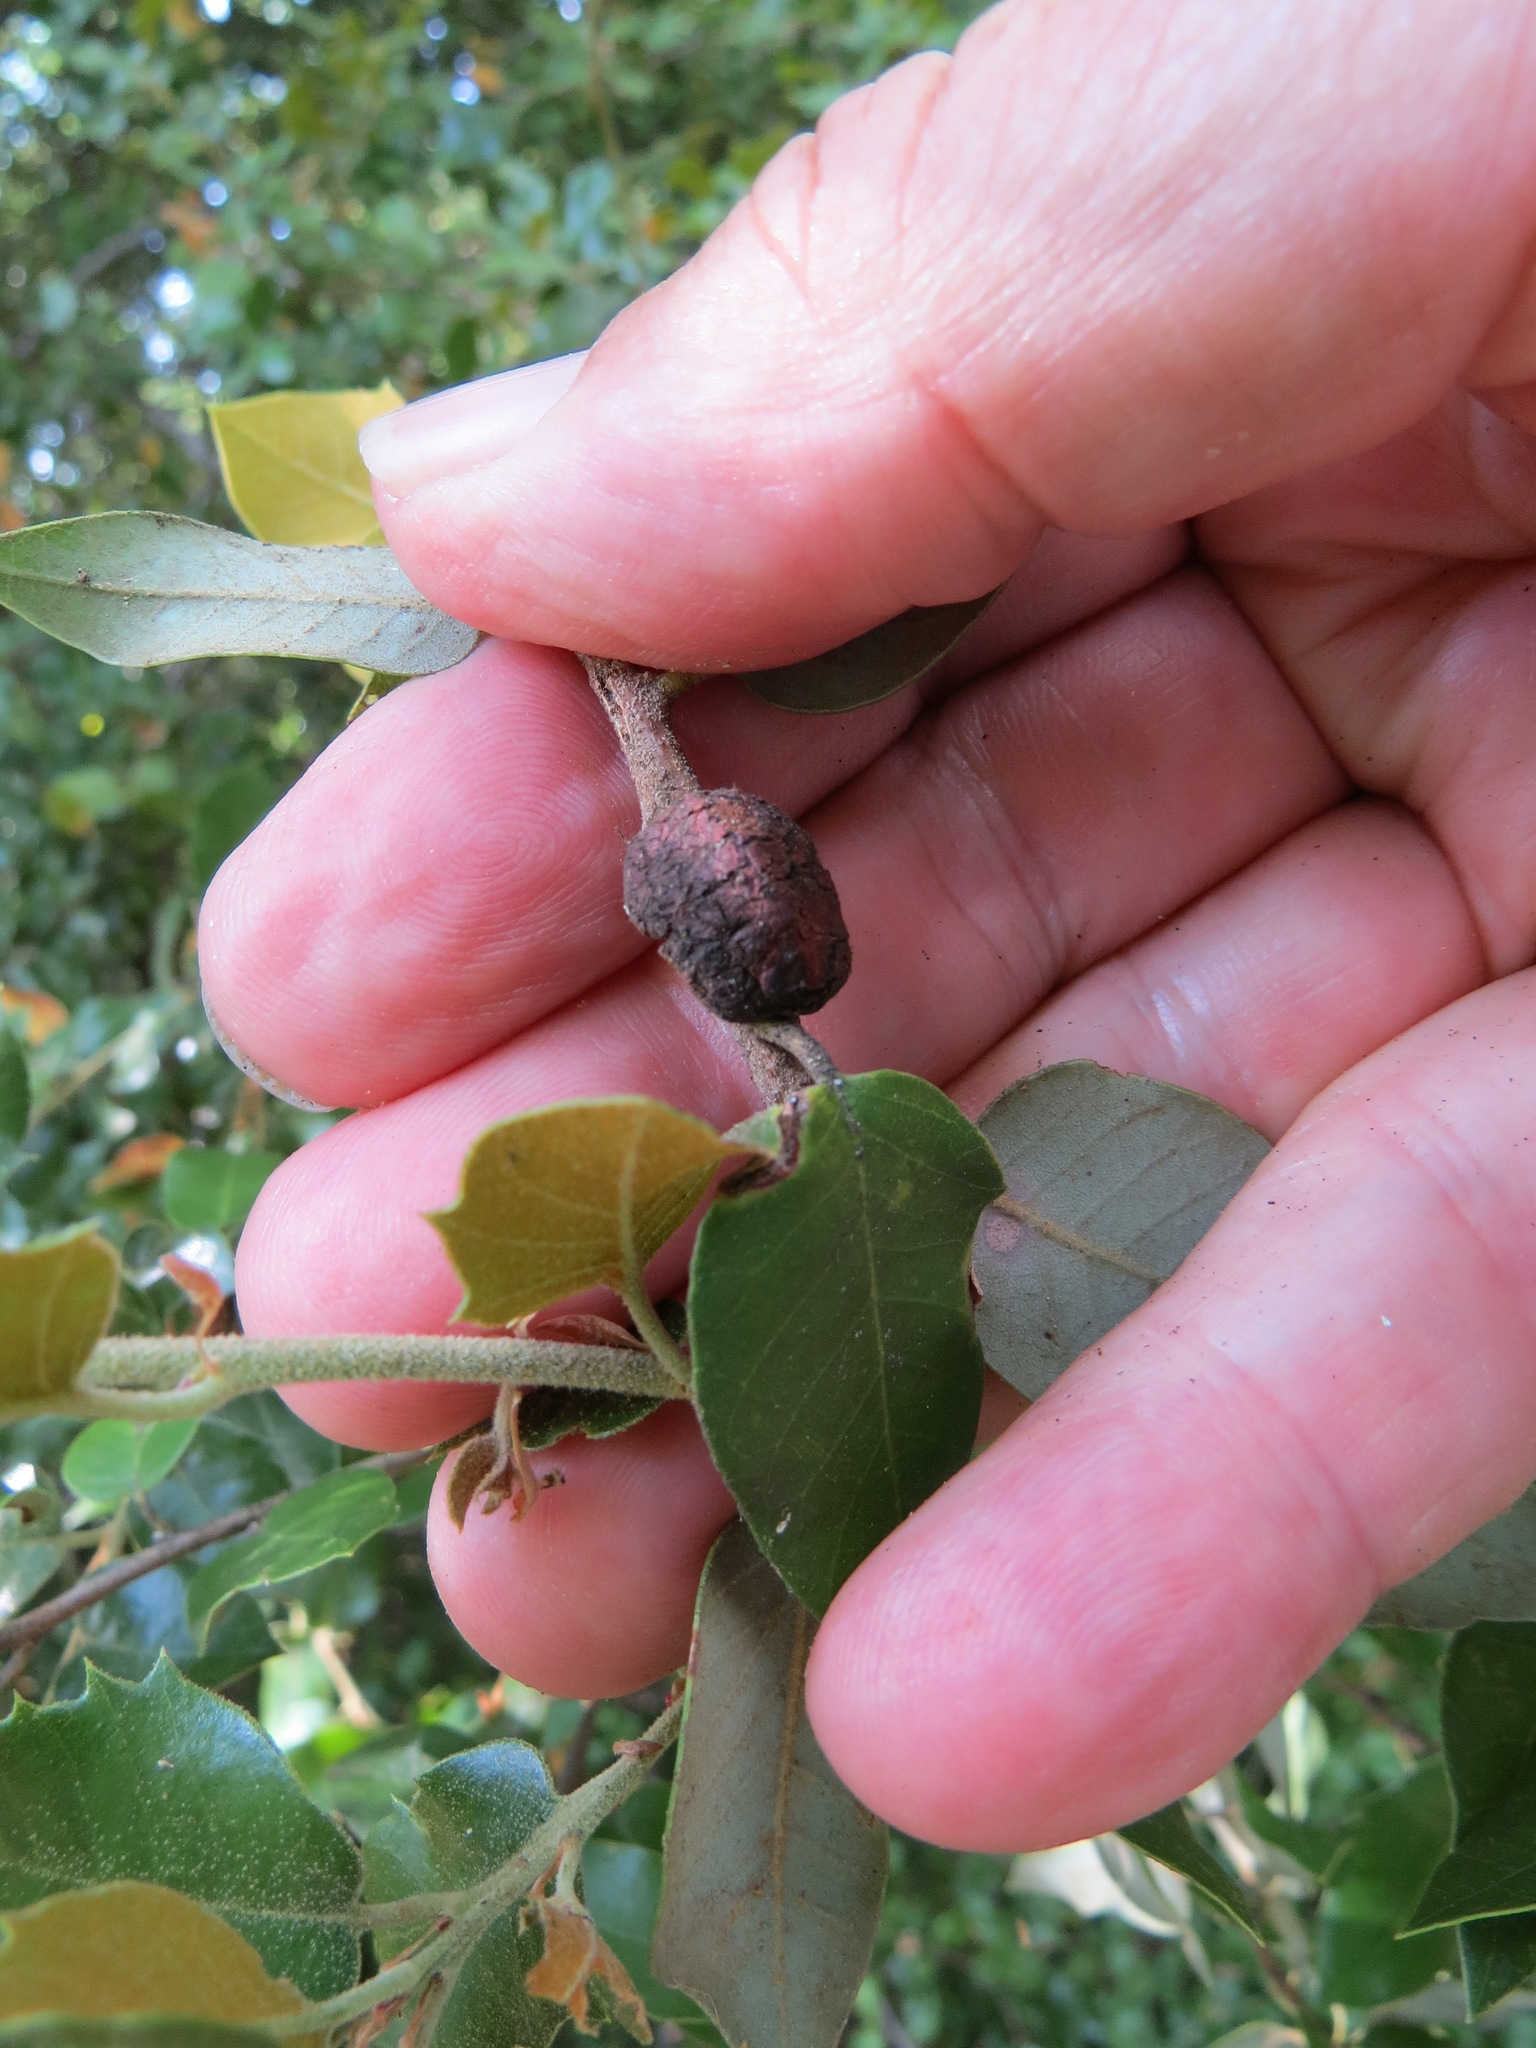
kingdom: Animalia
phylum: Arthropoda
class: Insecta
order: Hymenoptera
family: Cynipidae
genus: Disholandricus
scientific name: Disholandricus
